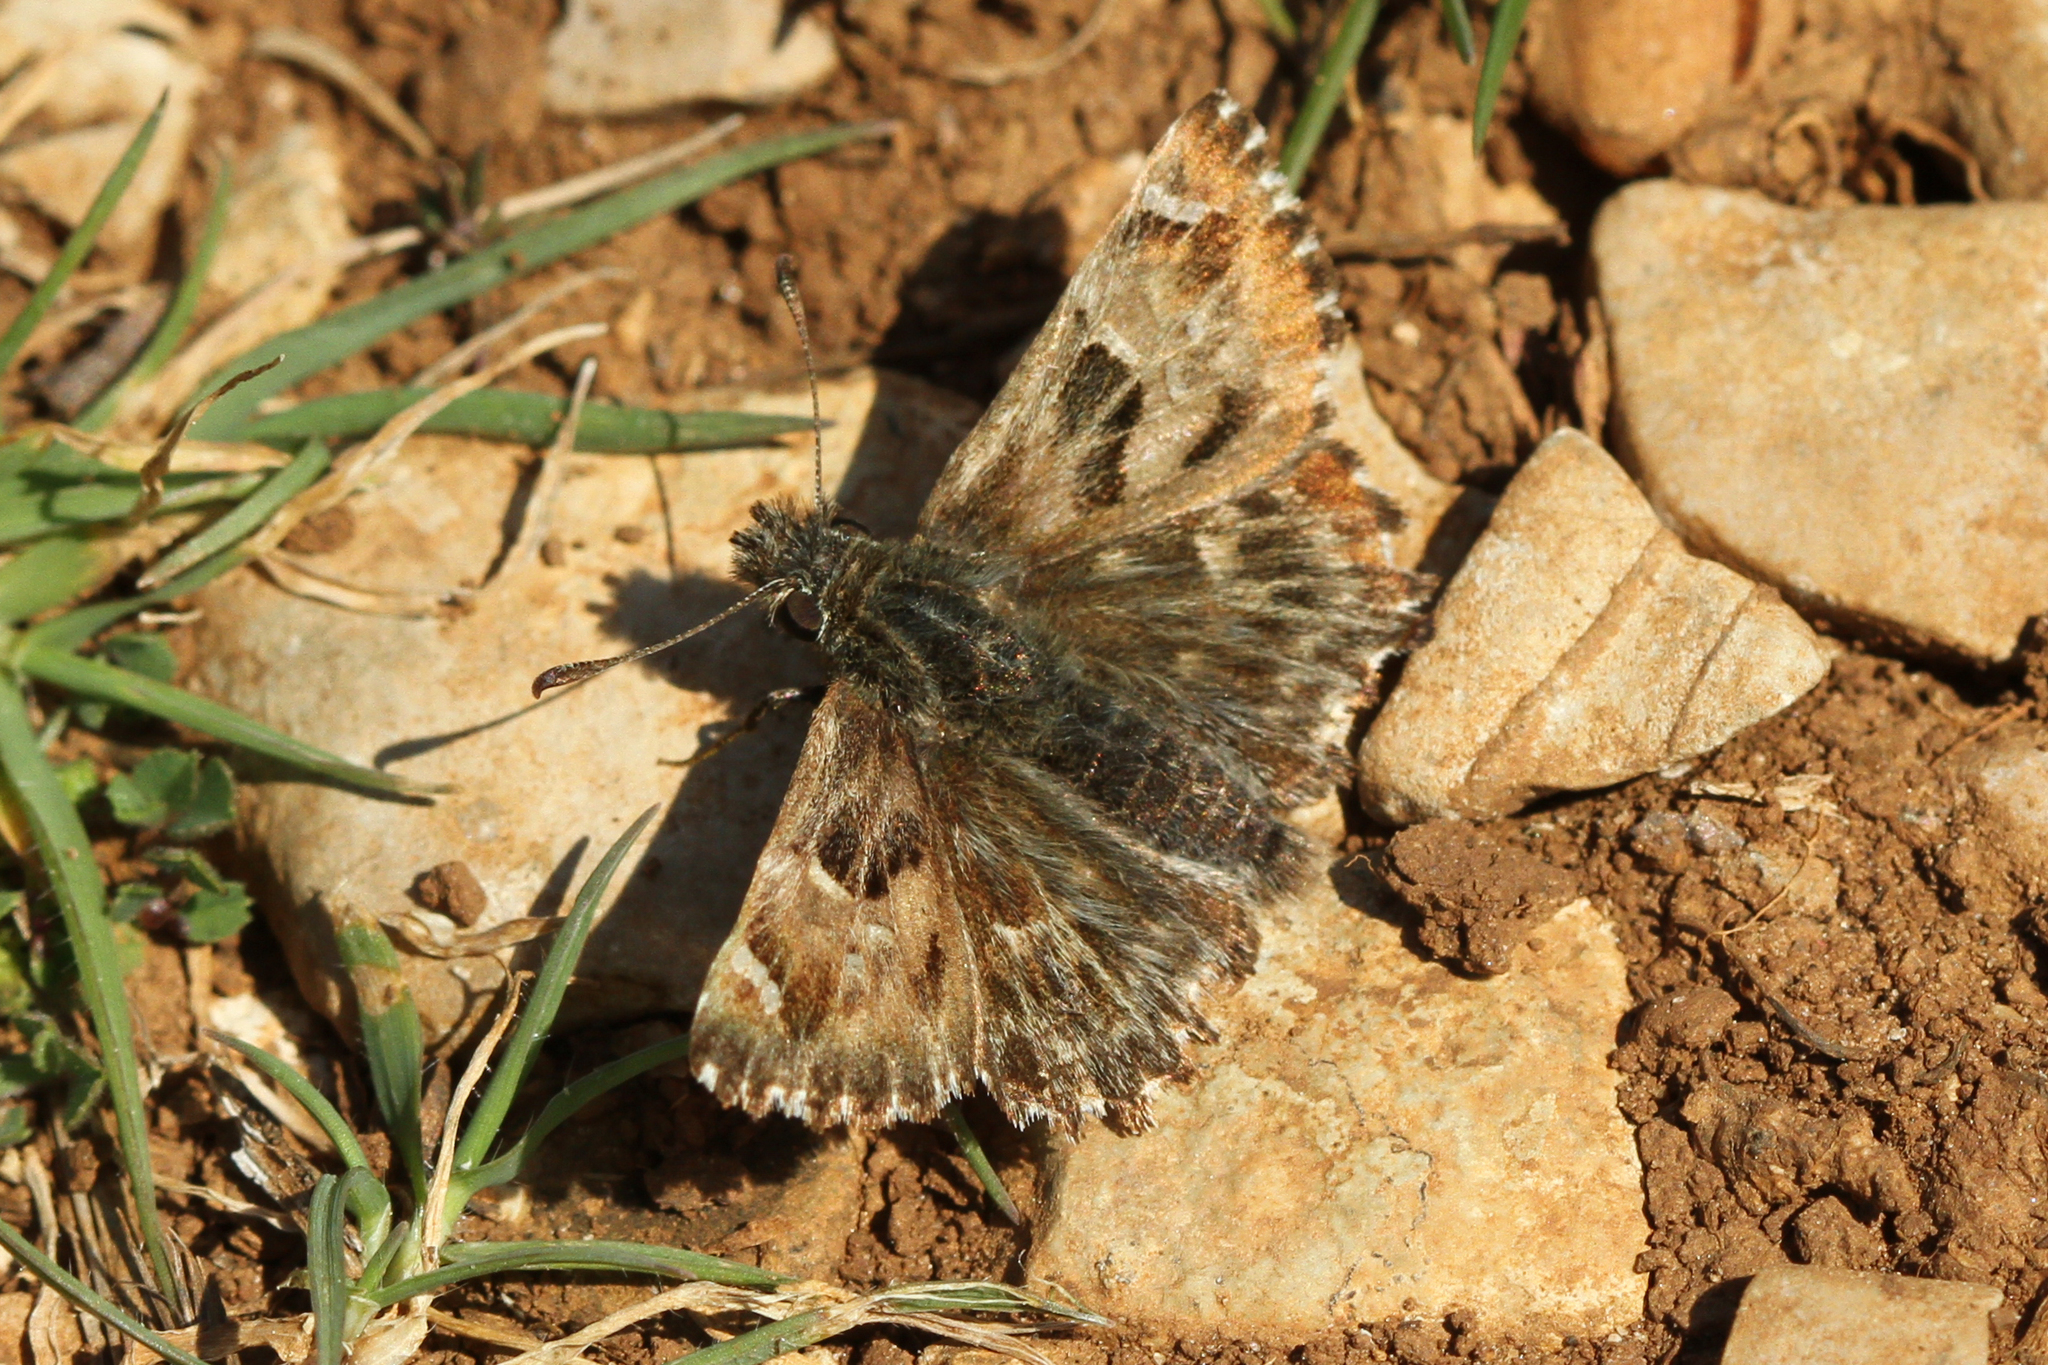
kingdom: Animalia
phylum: Arthropoda
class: Insecta
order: Lepidoptera
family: Hesperiidae
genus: Carcharodus
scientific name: Carcharodus alceae
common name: Mallow skipper
